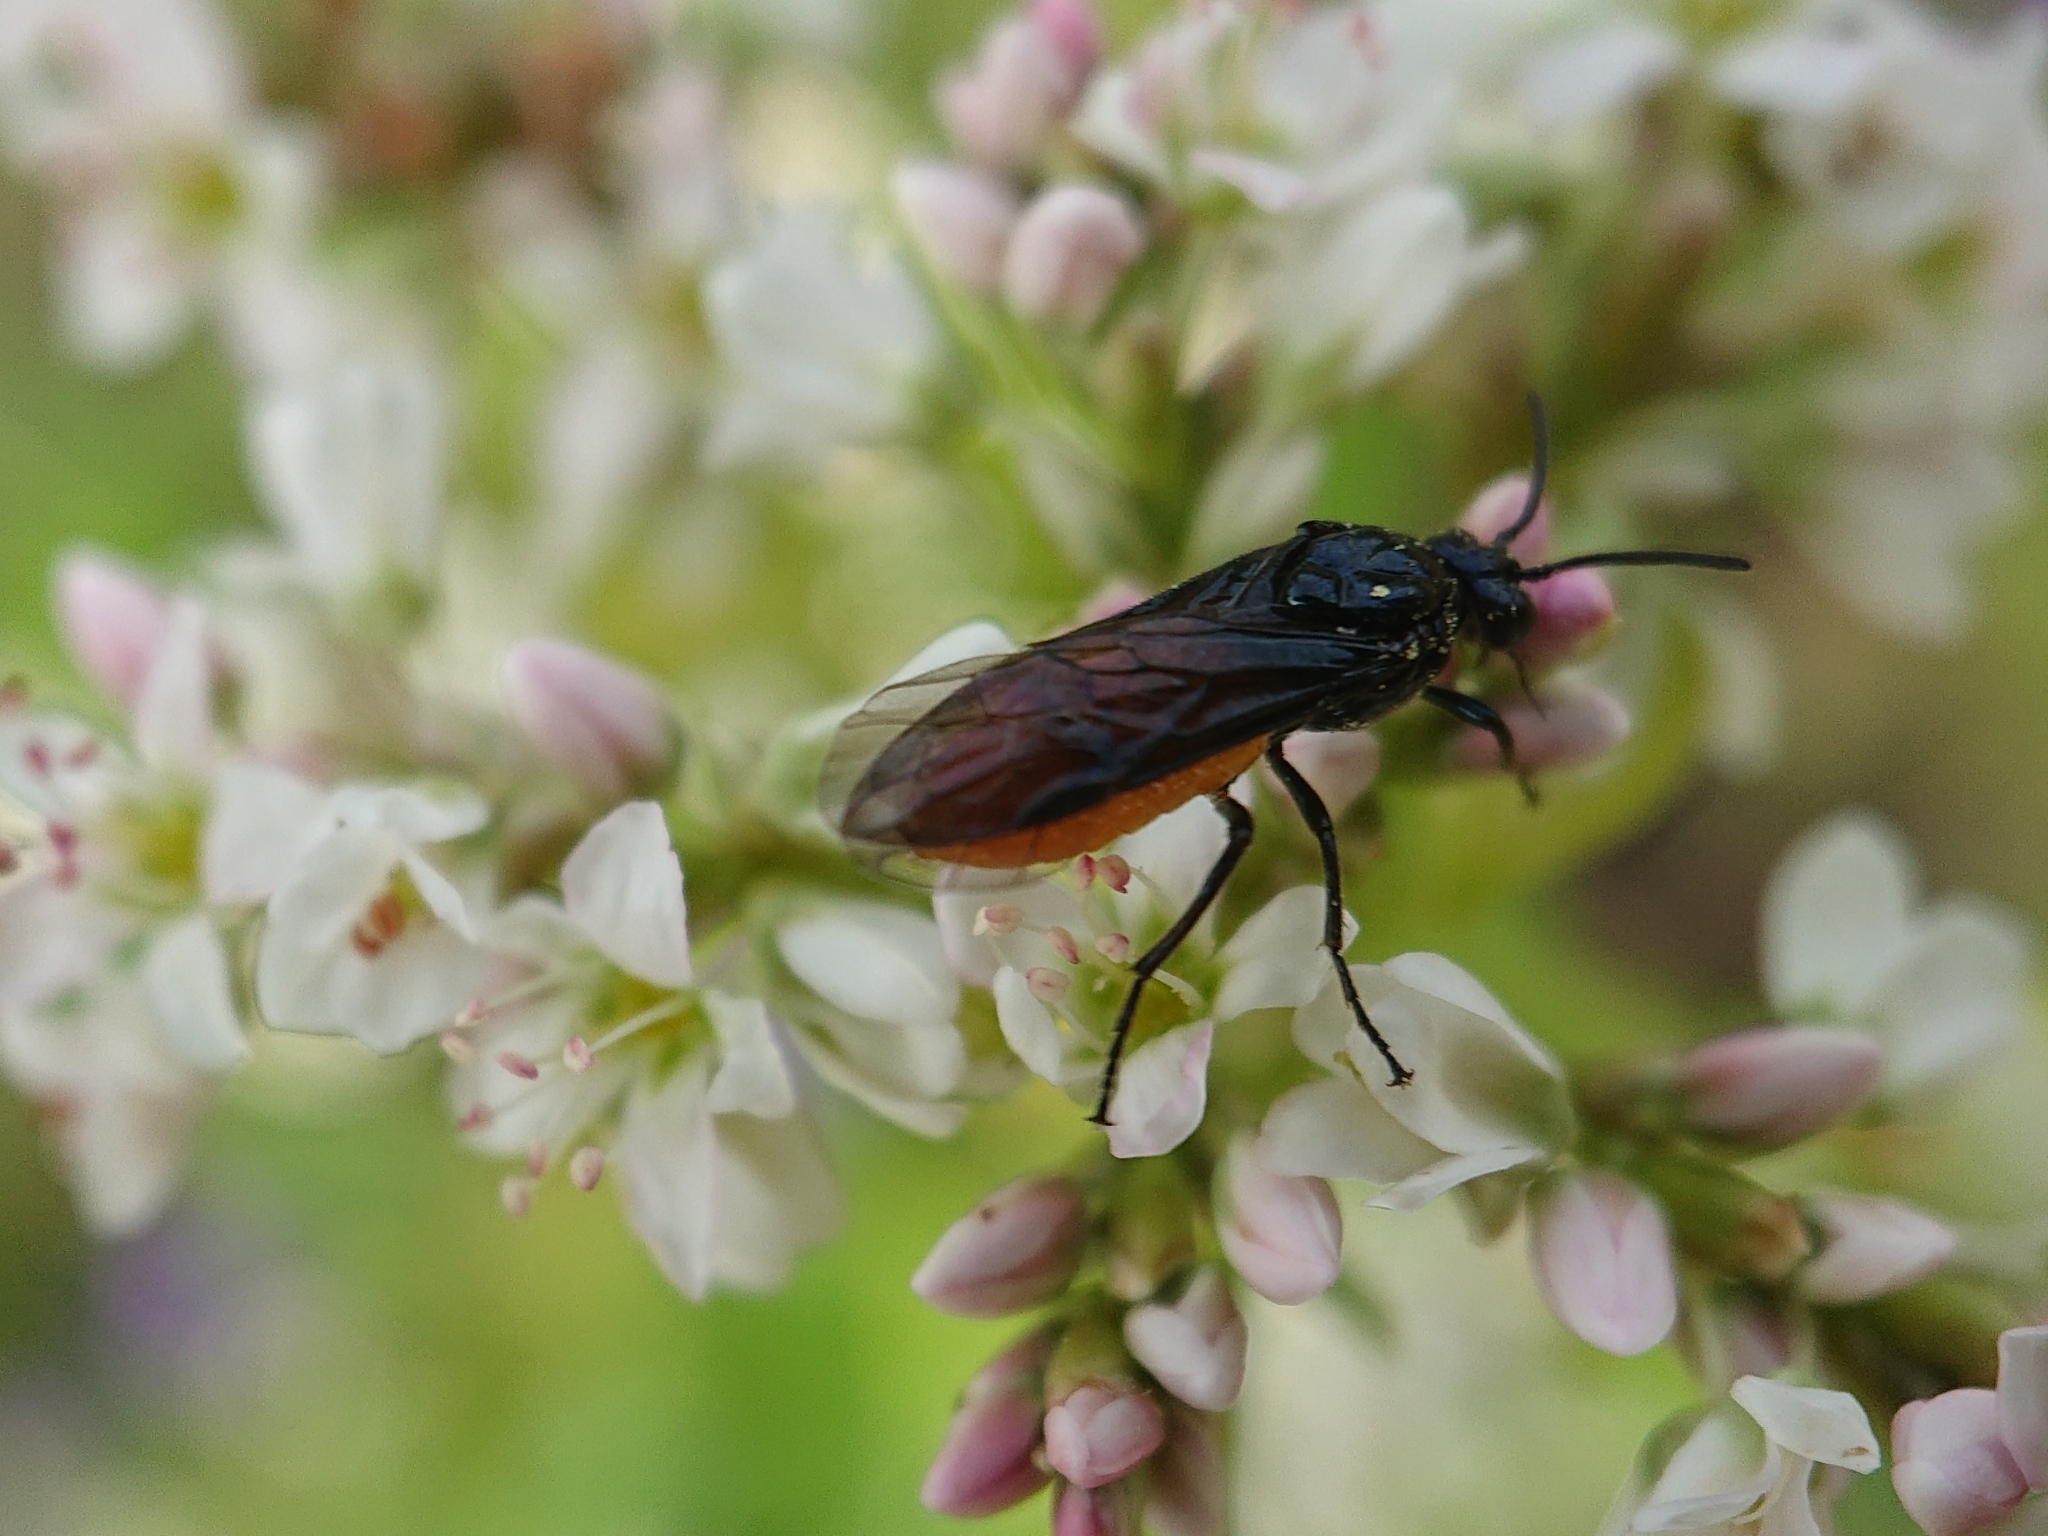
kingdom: Animalia
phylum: Arthropoda
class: Insecta
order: Hymenoptera
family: Argidae
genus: Arge
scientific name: Arge pagana
